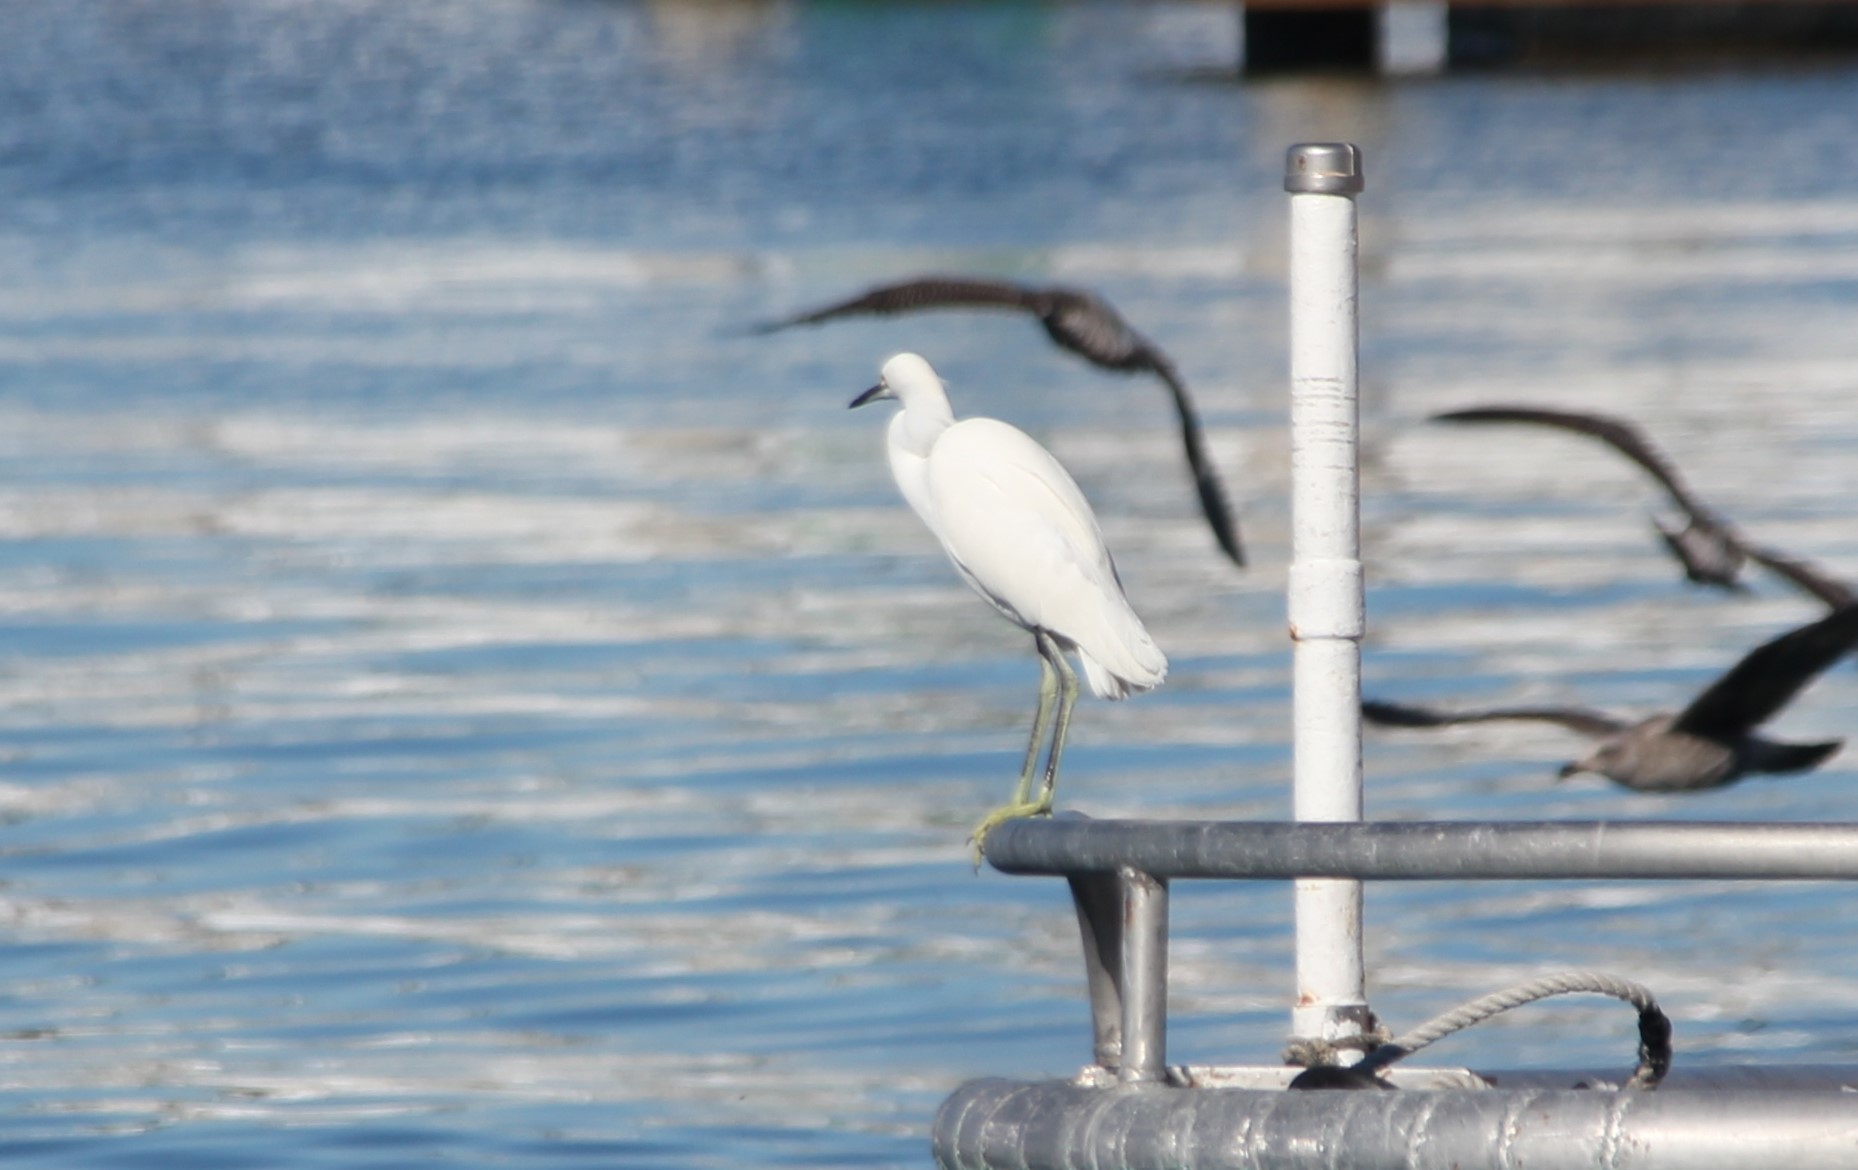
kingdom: Animalia
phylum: Chordata
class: Aves
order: Pelecaniformes
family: Ardeidae
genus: Egretta
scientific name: Egretta thula
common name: Snowy egret
